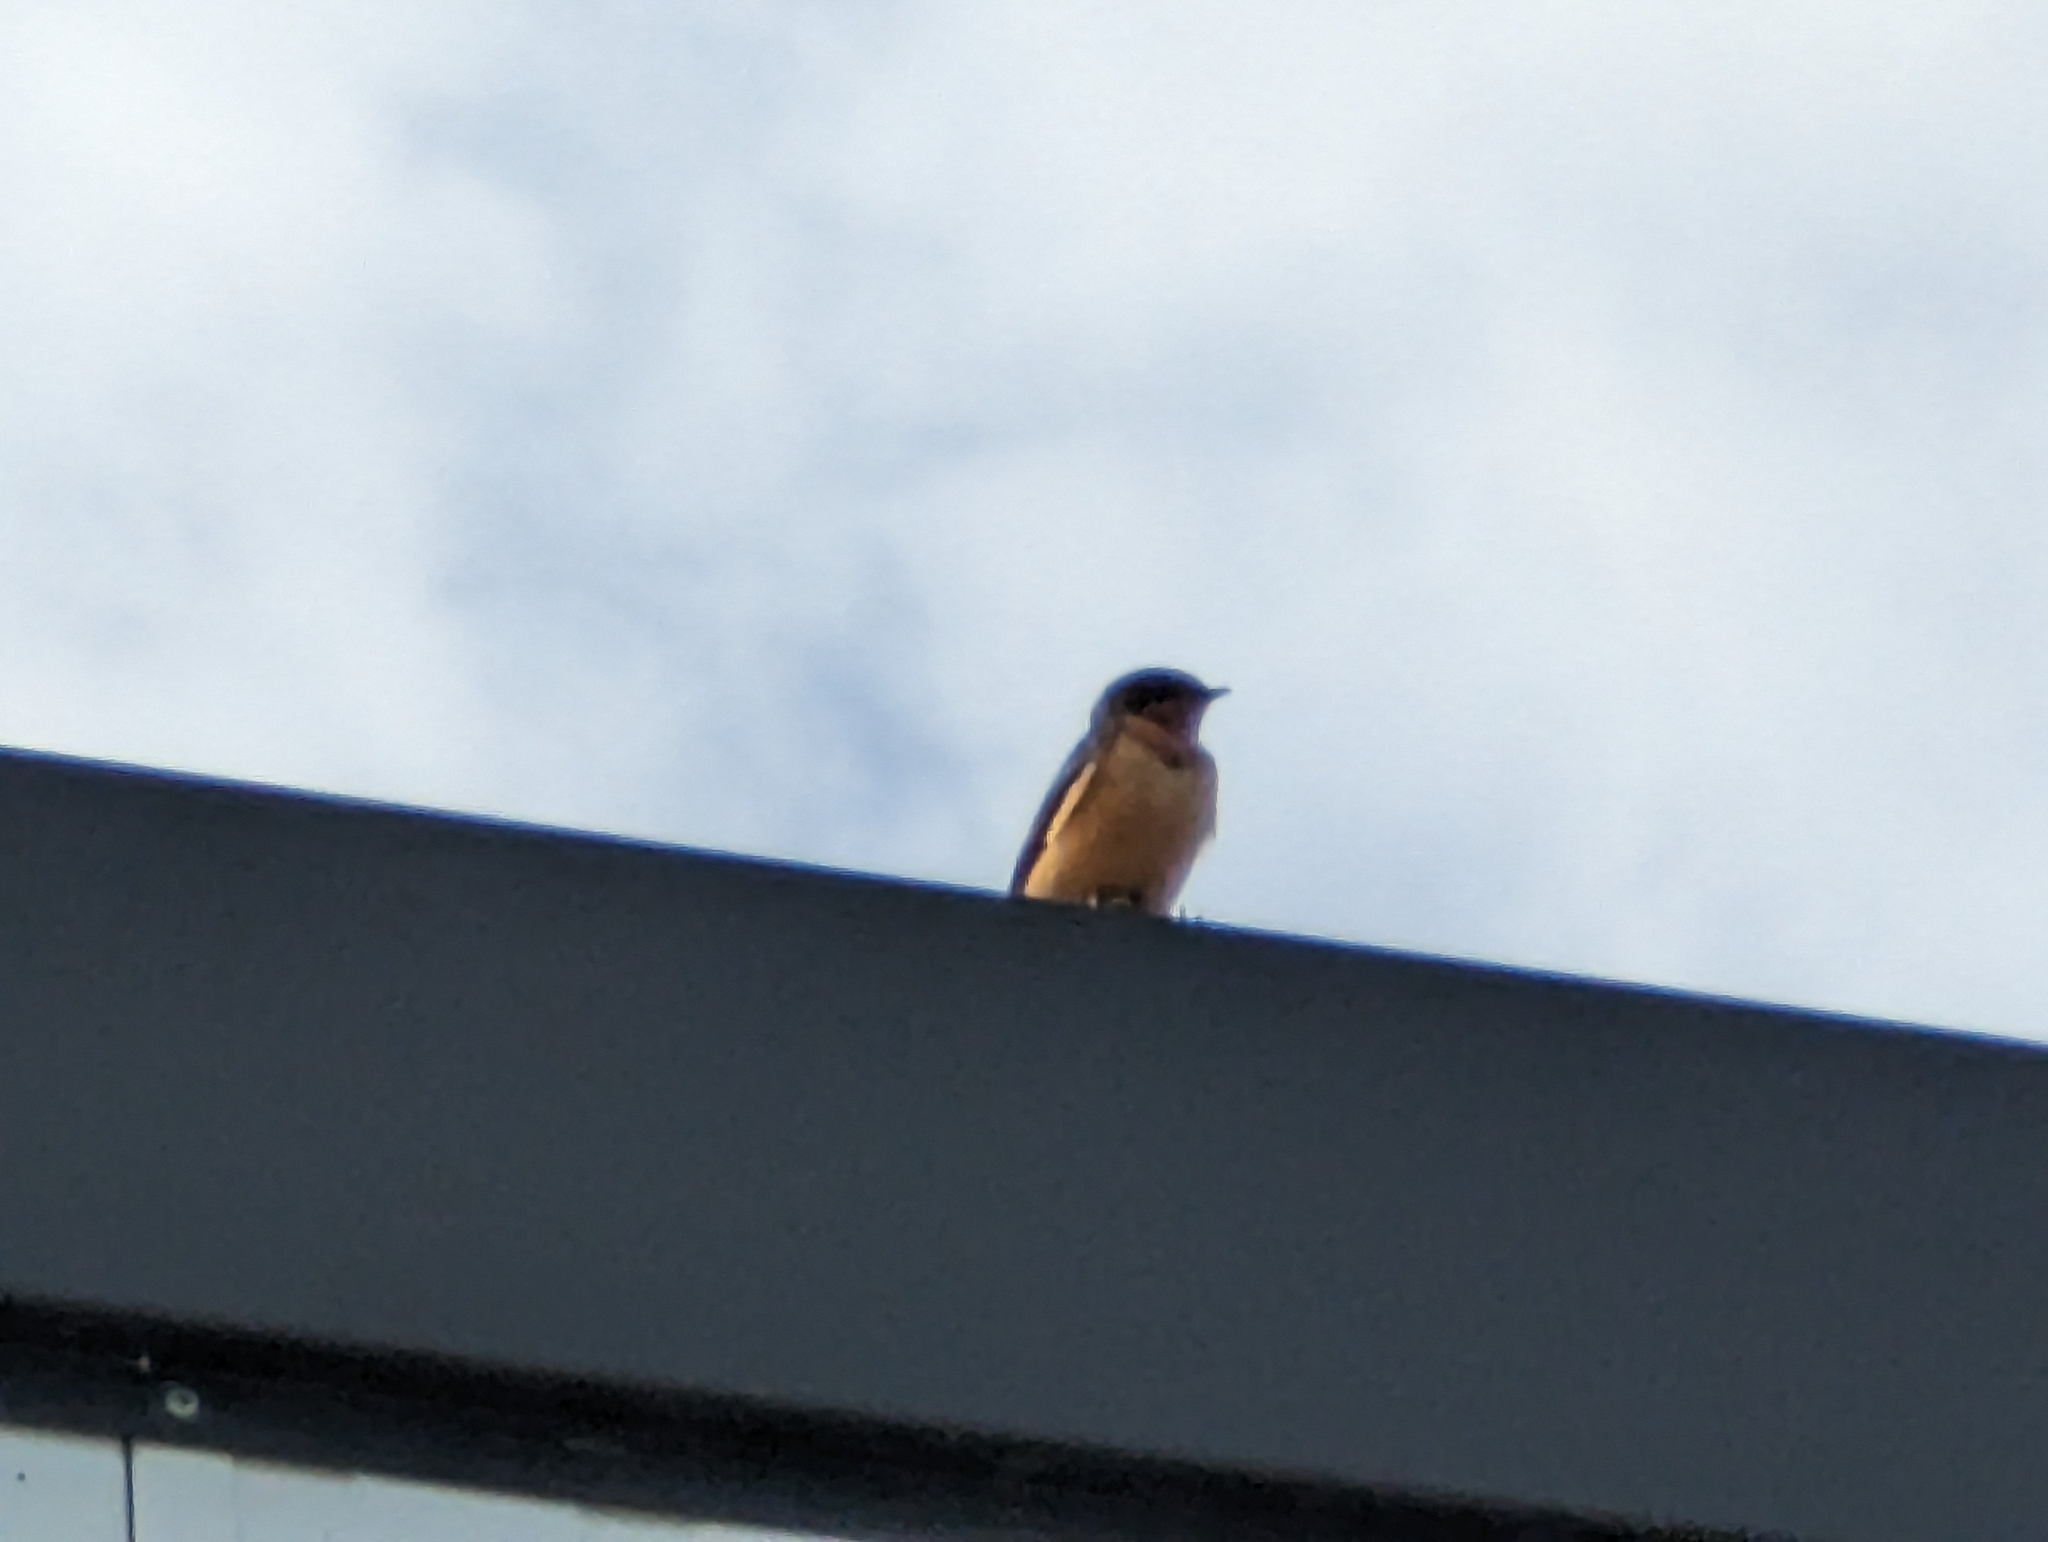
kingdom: Animalia
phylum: Chordata
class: Aves
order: Passeriformes
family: Hirundinidae
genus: Hirundo
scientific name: Hirundo rustica
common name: Barn swallow
